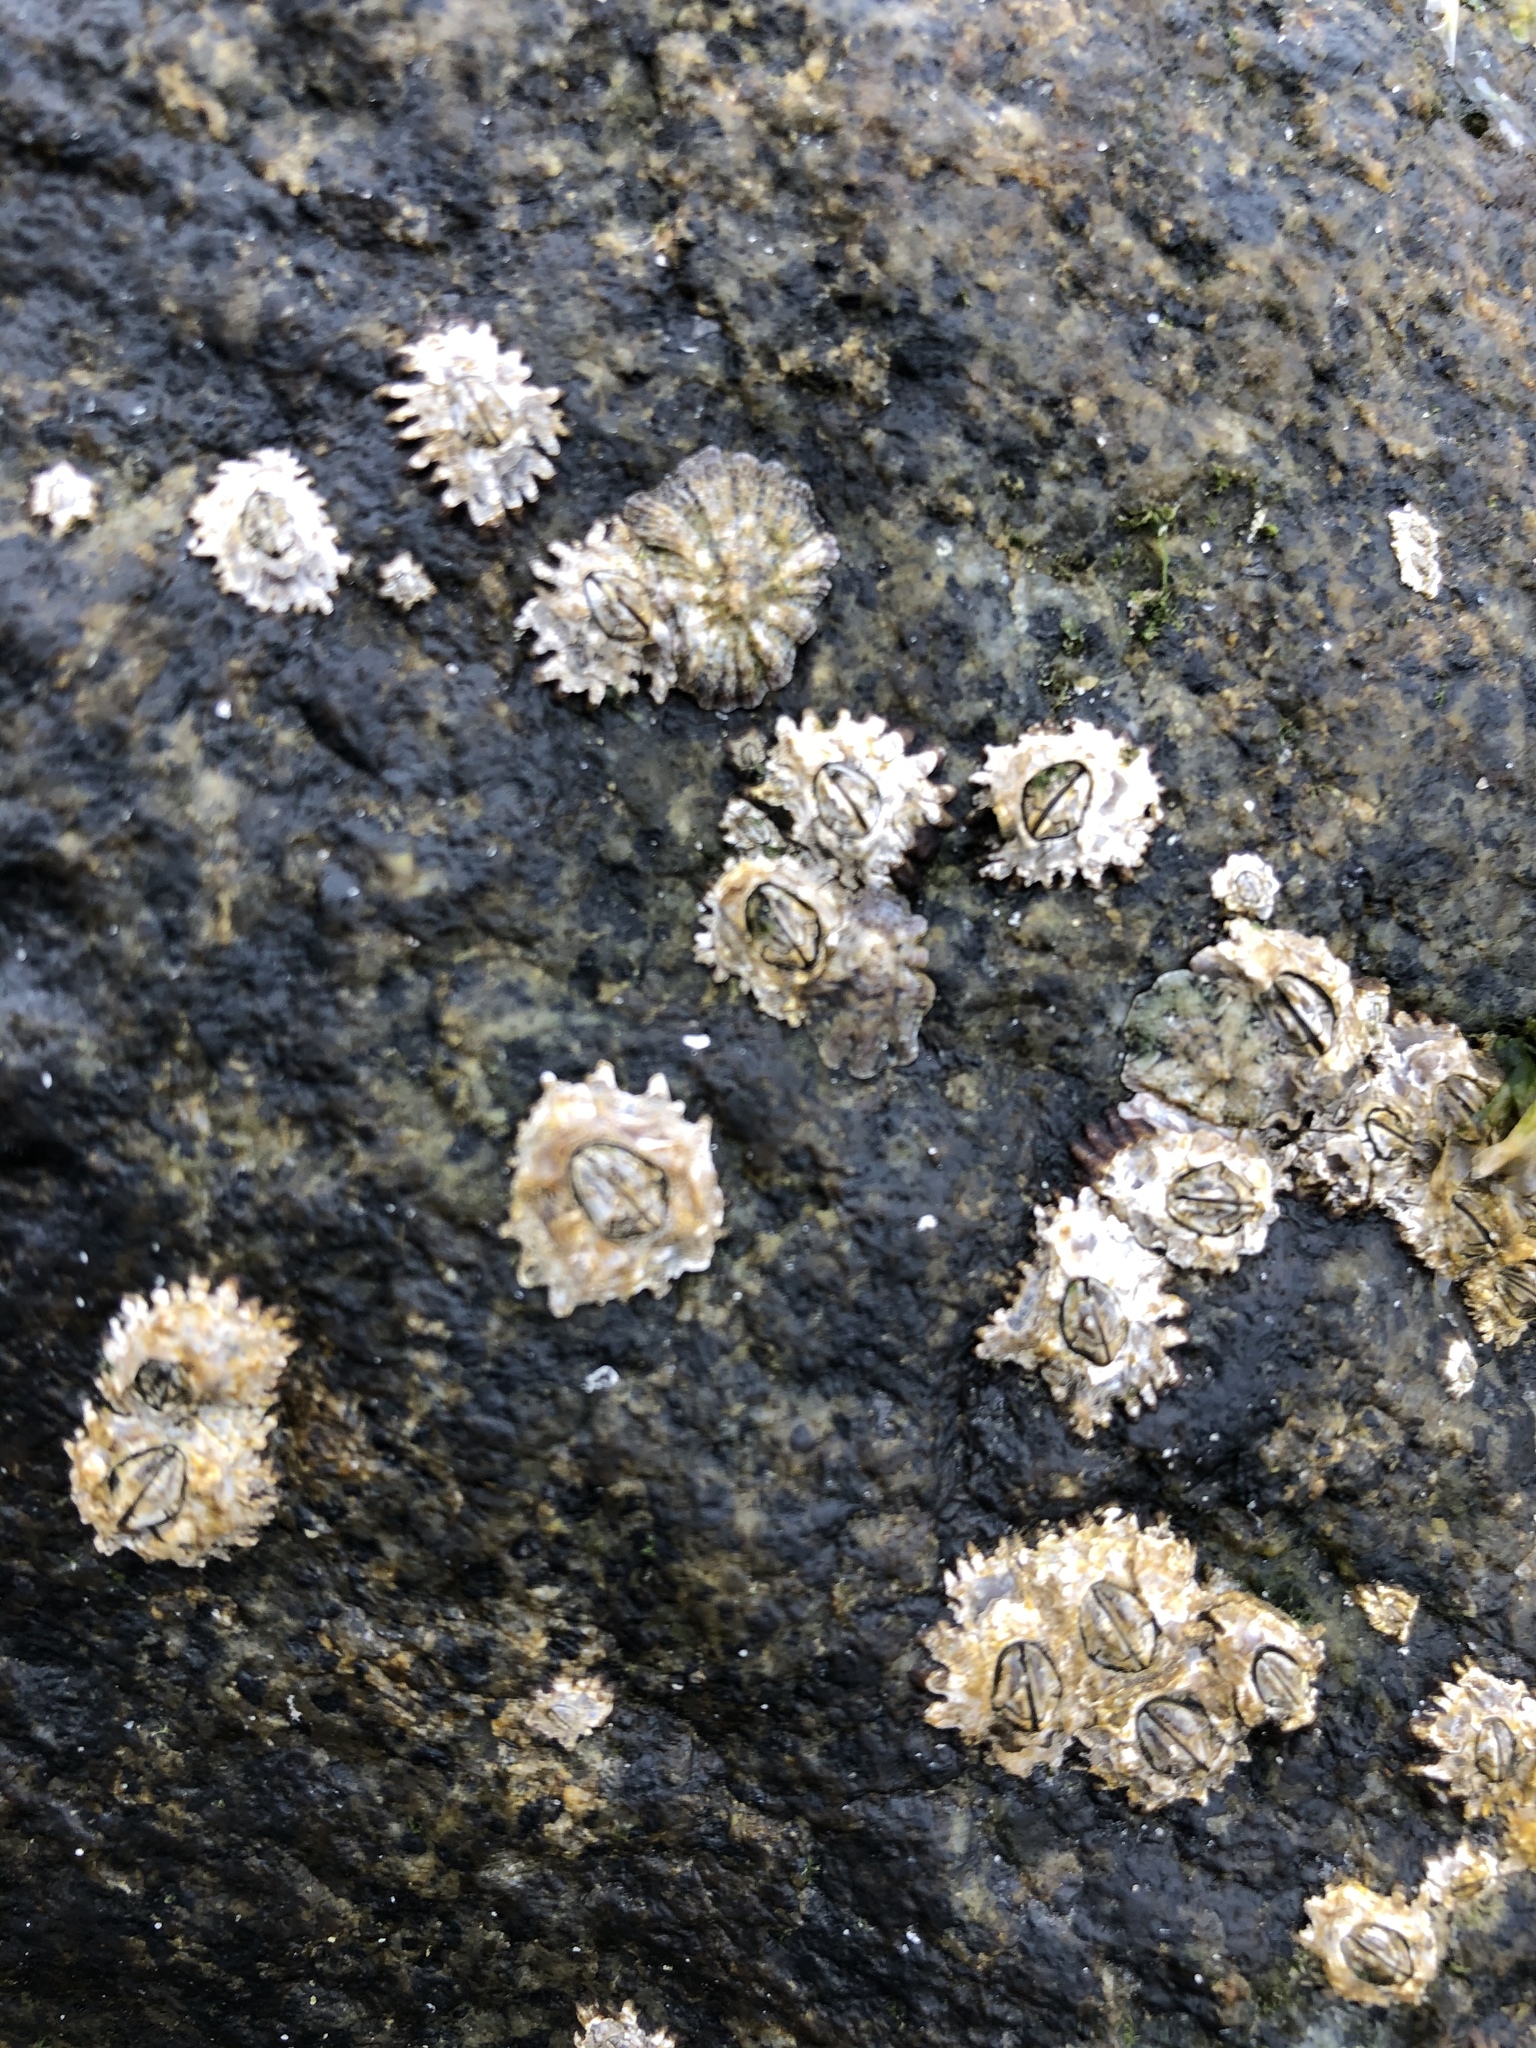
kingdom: Animalia
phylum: Arthropoda
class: Maxillopoda
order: Sessilia
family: Chthamalidae
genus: Jehlius
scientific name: Jehlius cirratus
